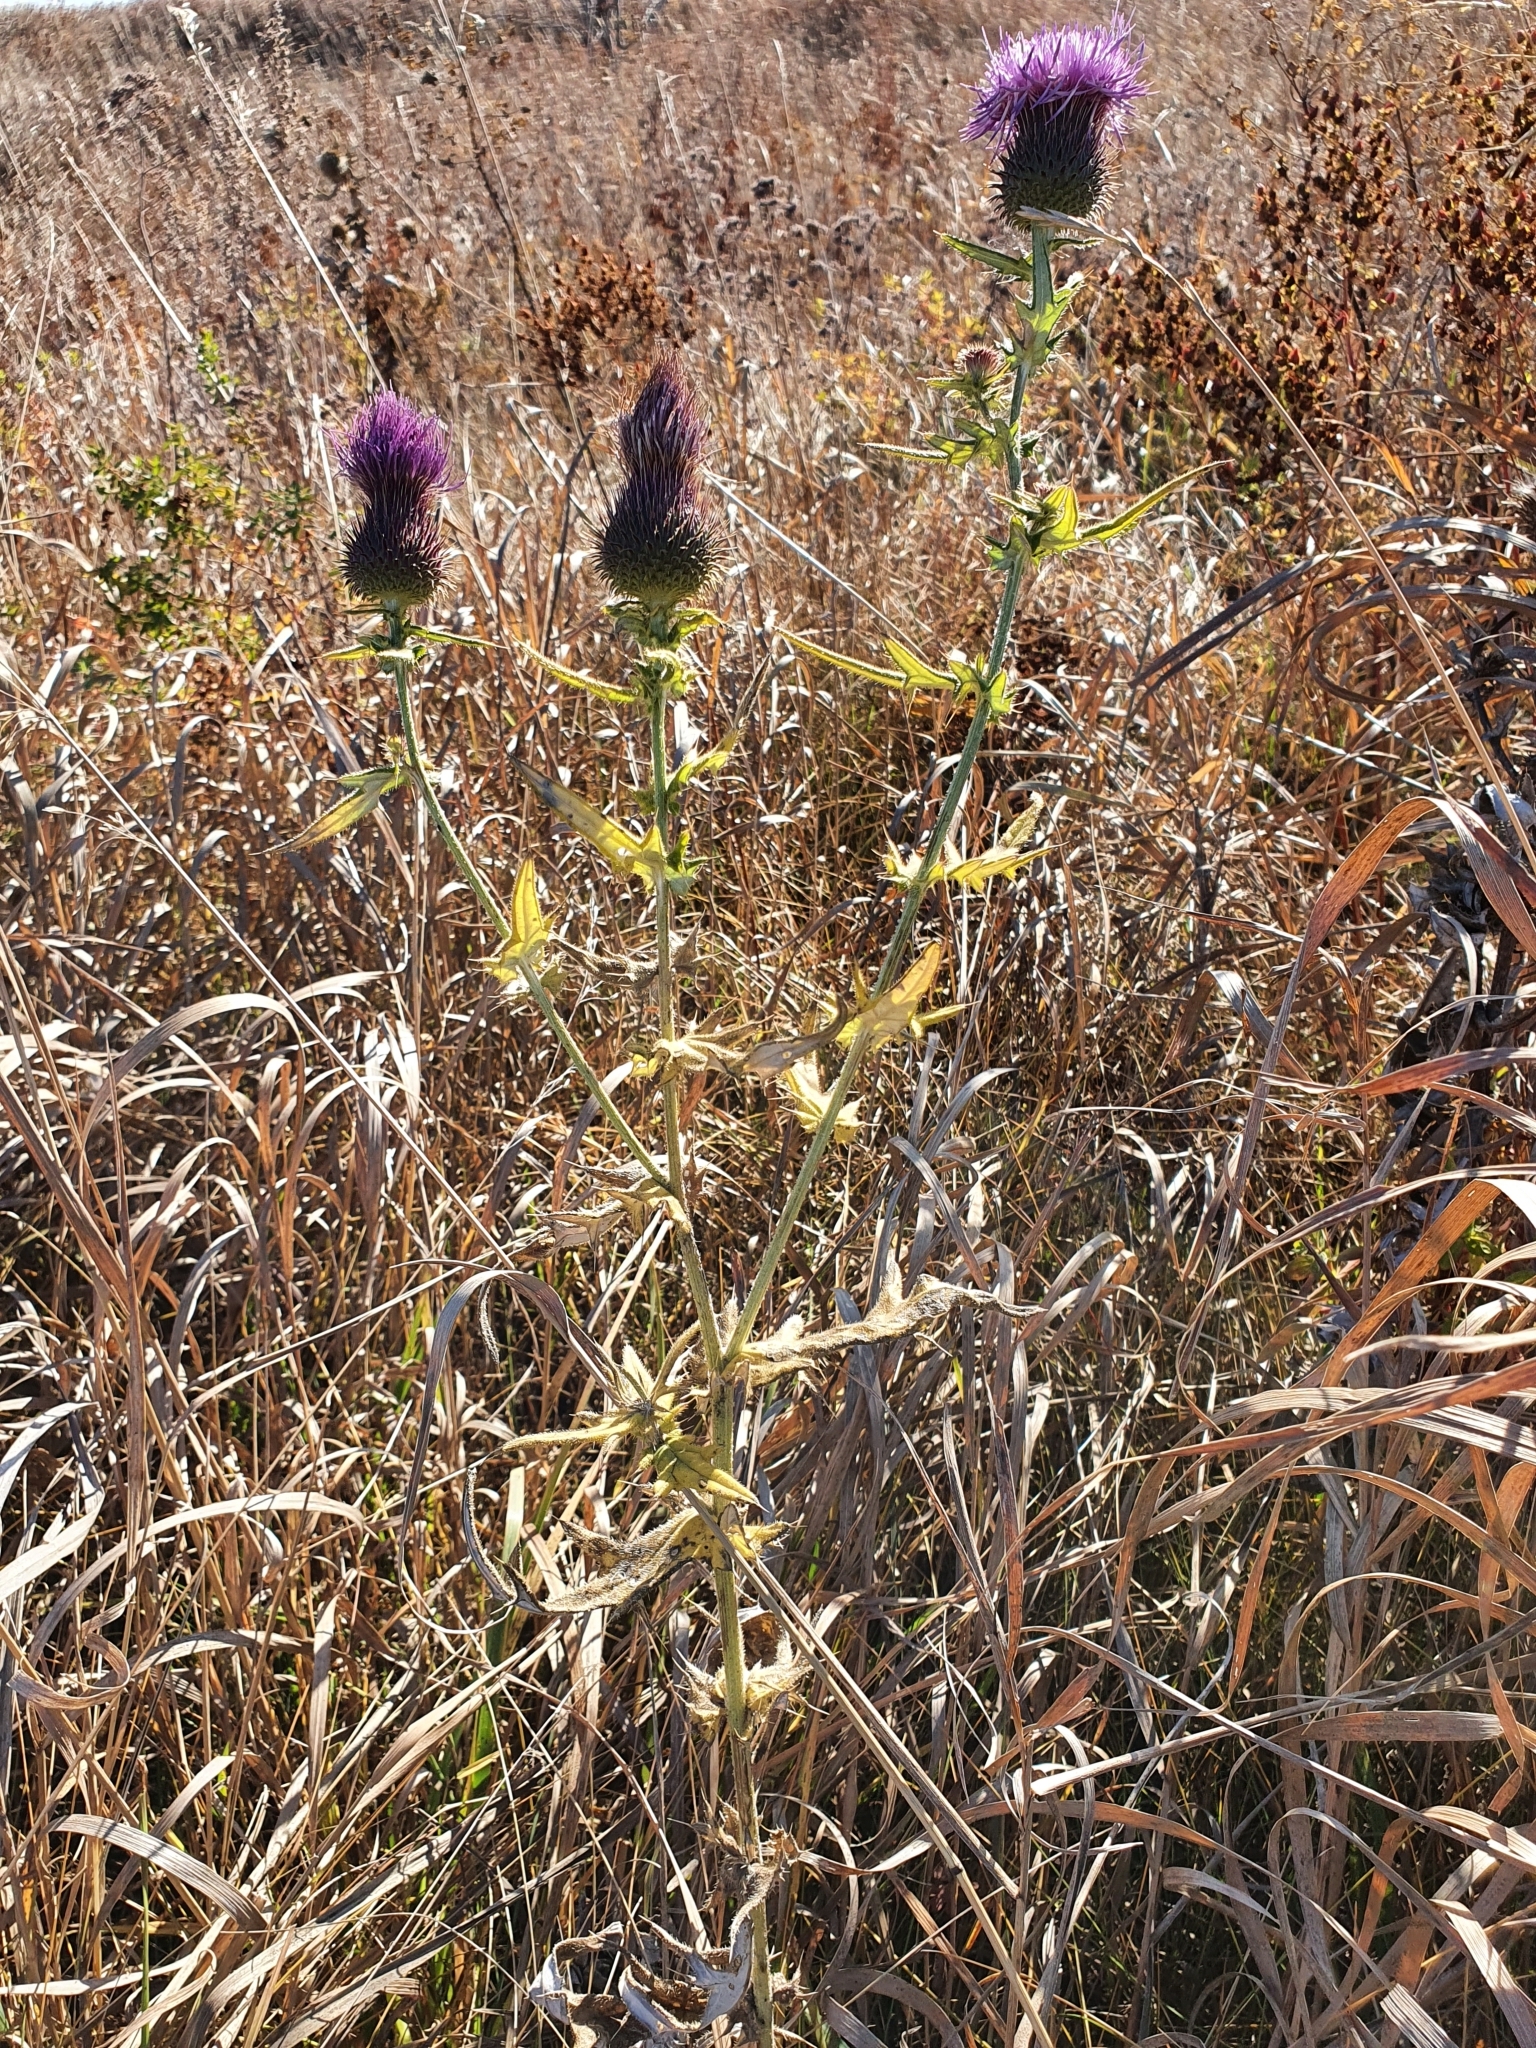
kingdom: Plantae
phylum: Tracheophyta
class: Magnoliopsida
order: Asterales
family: Asteraceae
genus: Cirsium
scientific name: Cirsium serrulatum
